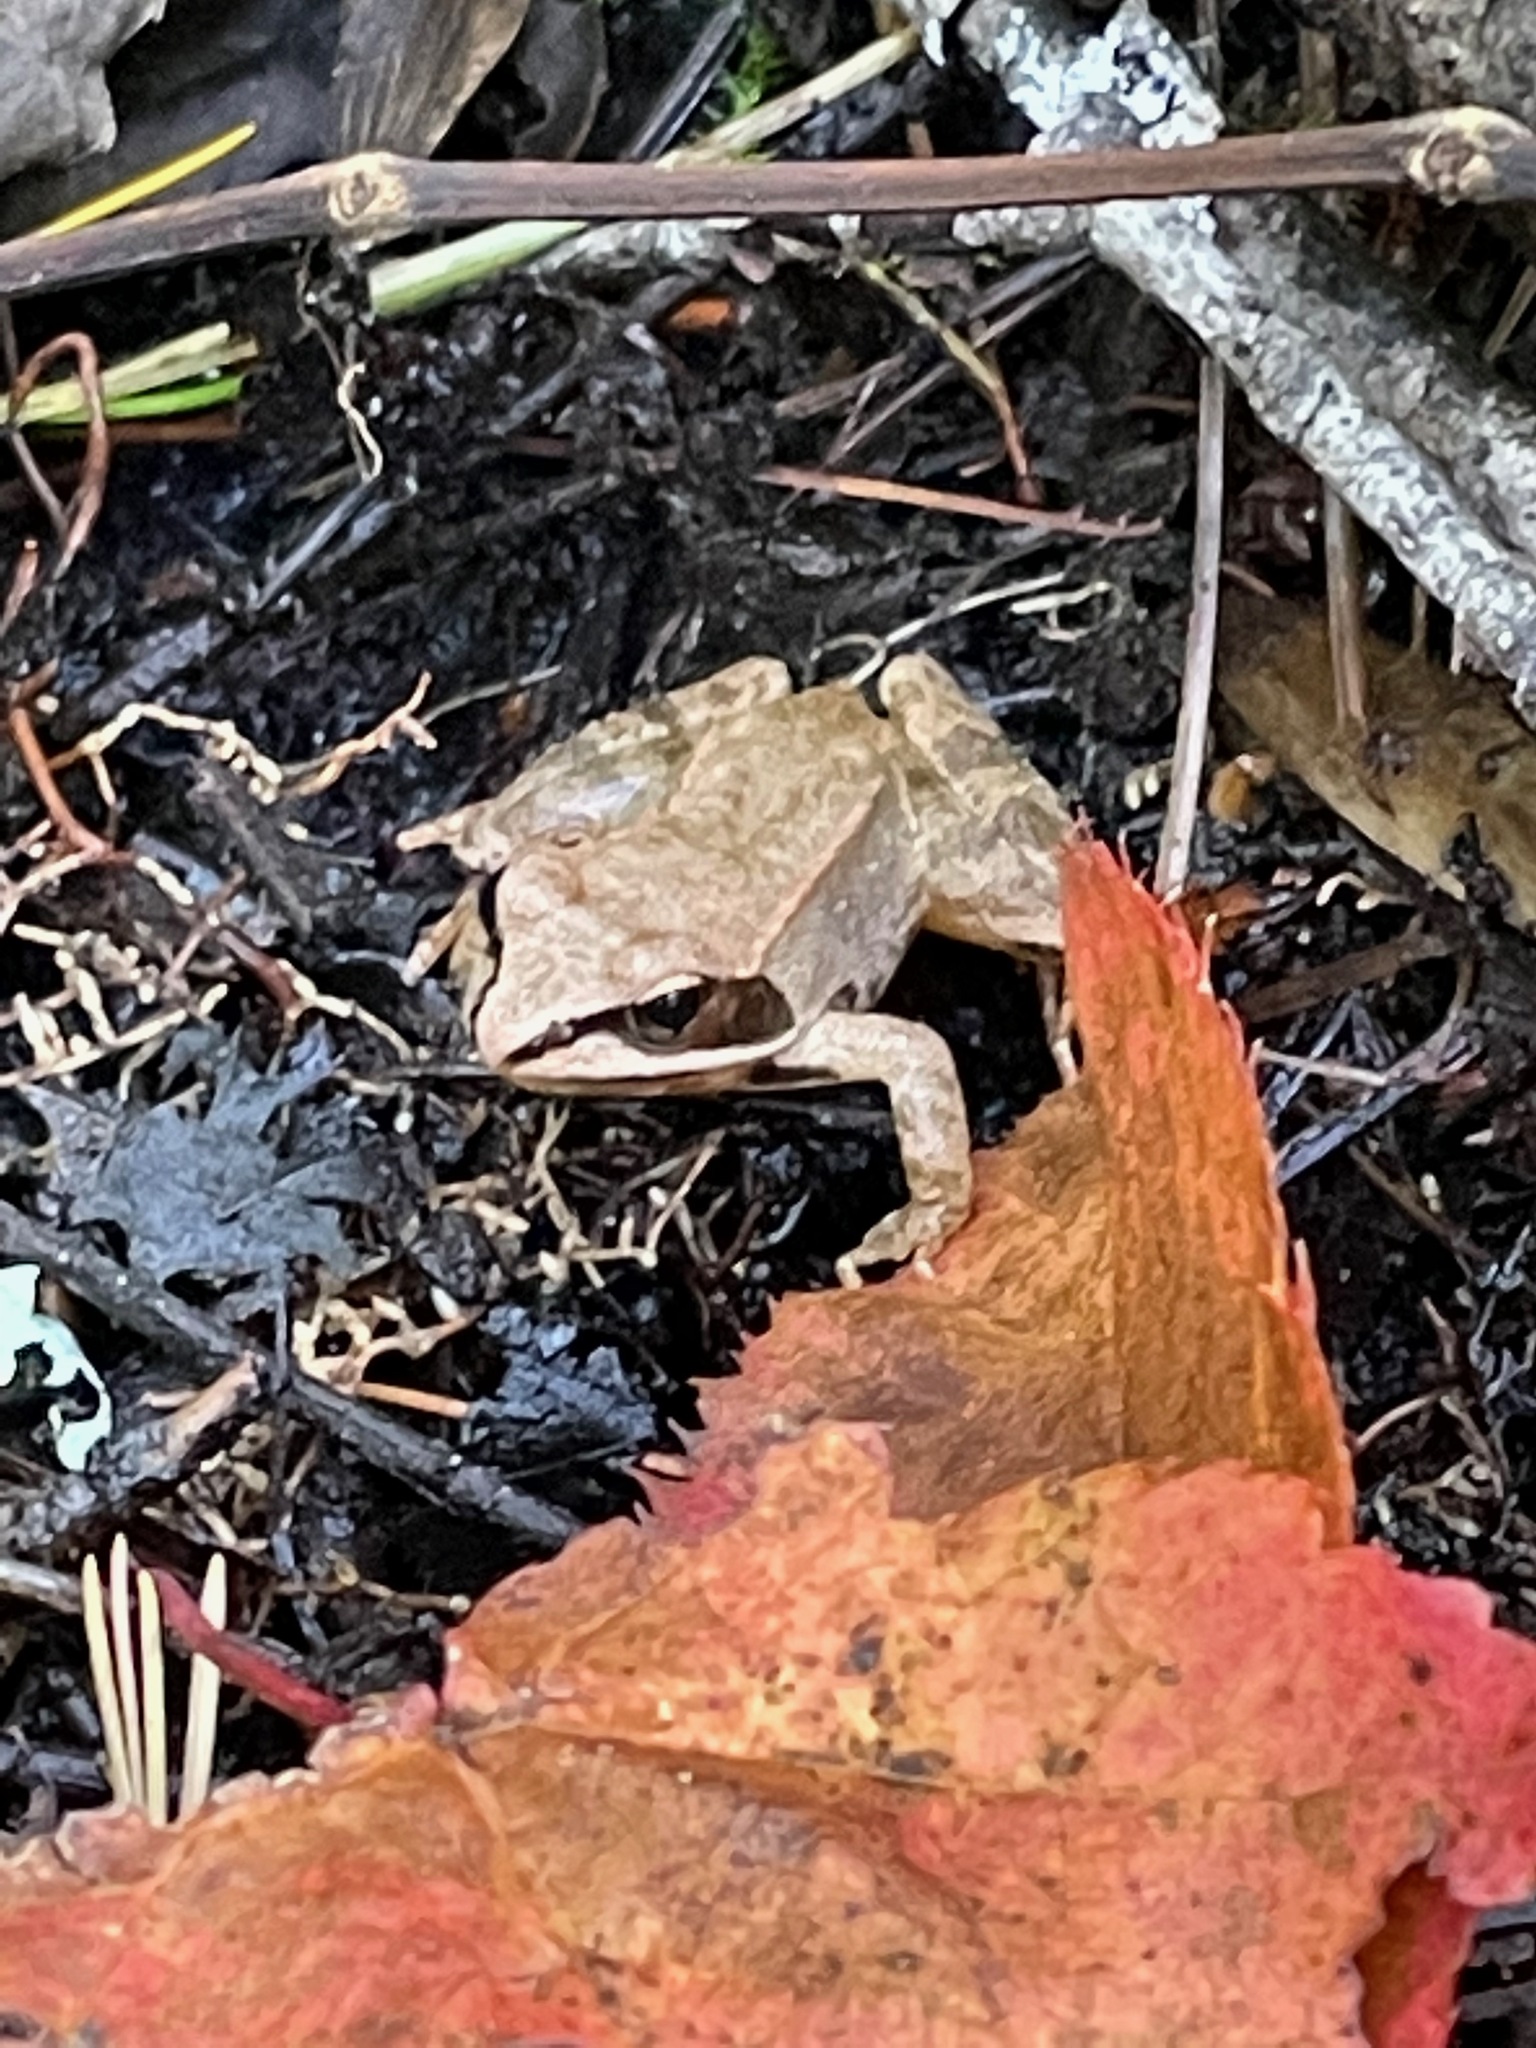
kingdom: Animalia
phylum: Chordata
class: Amphibia
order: Anura
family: Ranidae
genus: Lithobates
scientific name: Lithobates sylvaticus
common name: Wood frog
